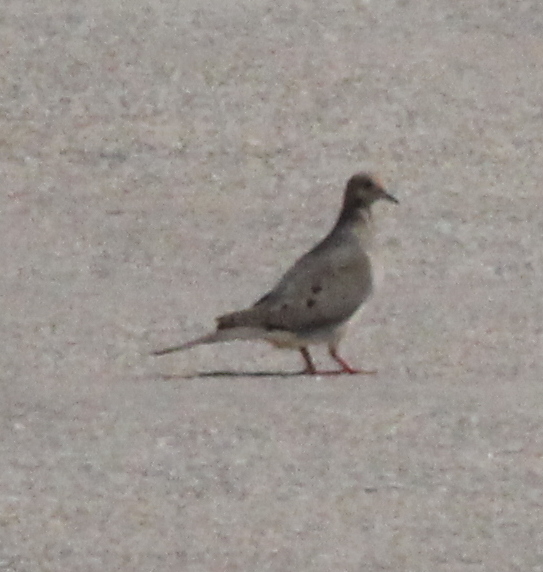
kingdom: Animalia
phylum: Chordata
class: Aves
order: Columbiformes
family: Columbidae
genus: Zenaida
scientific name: Zenaida macroura
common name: Mourning dove
